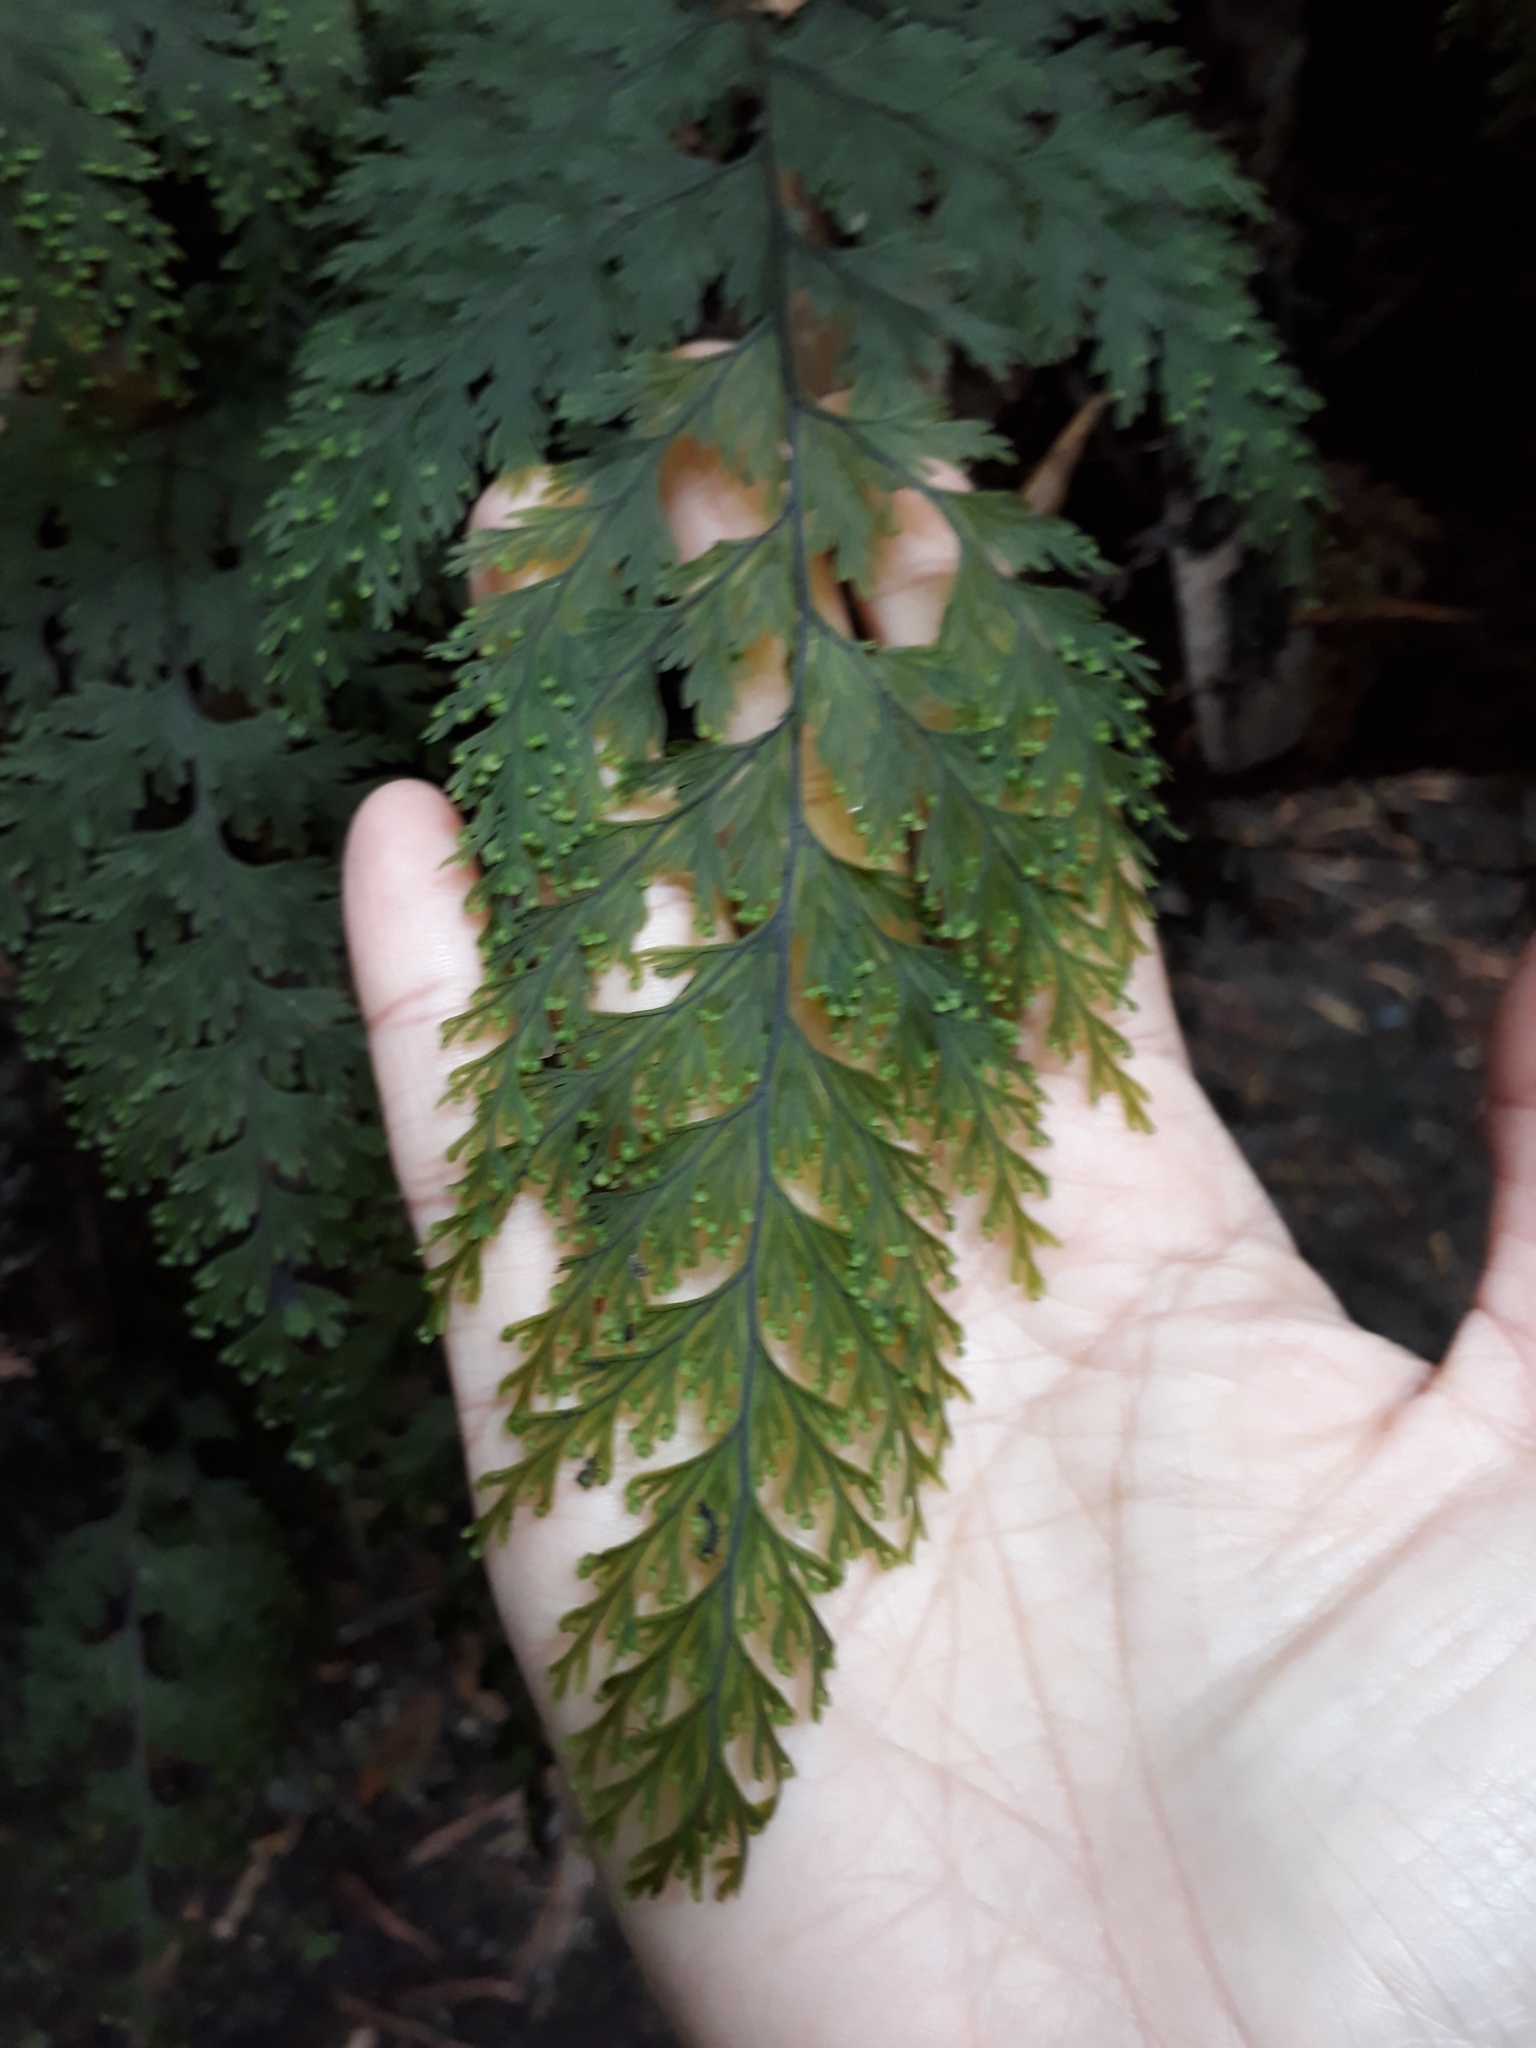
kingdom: Plantae
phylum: Tracheophyta
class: Polypodiopsida
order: Hymenophyllales
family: Hymenophyllaceae
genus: Hymenophyllum
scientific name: Hymenophyllum scabrum
